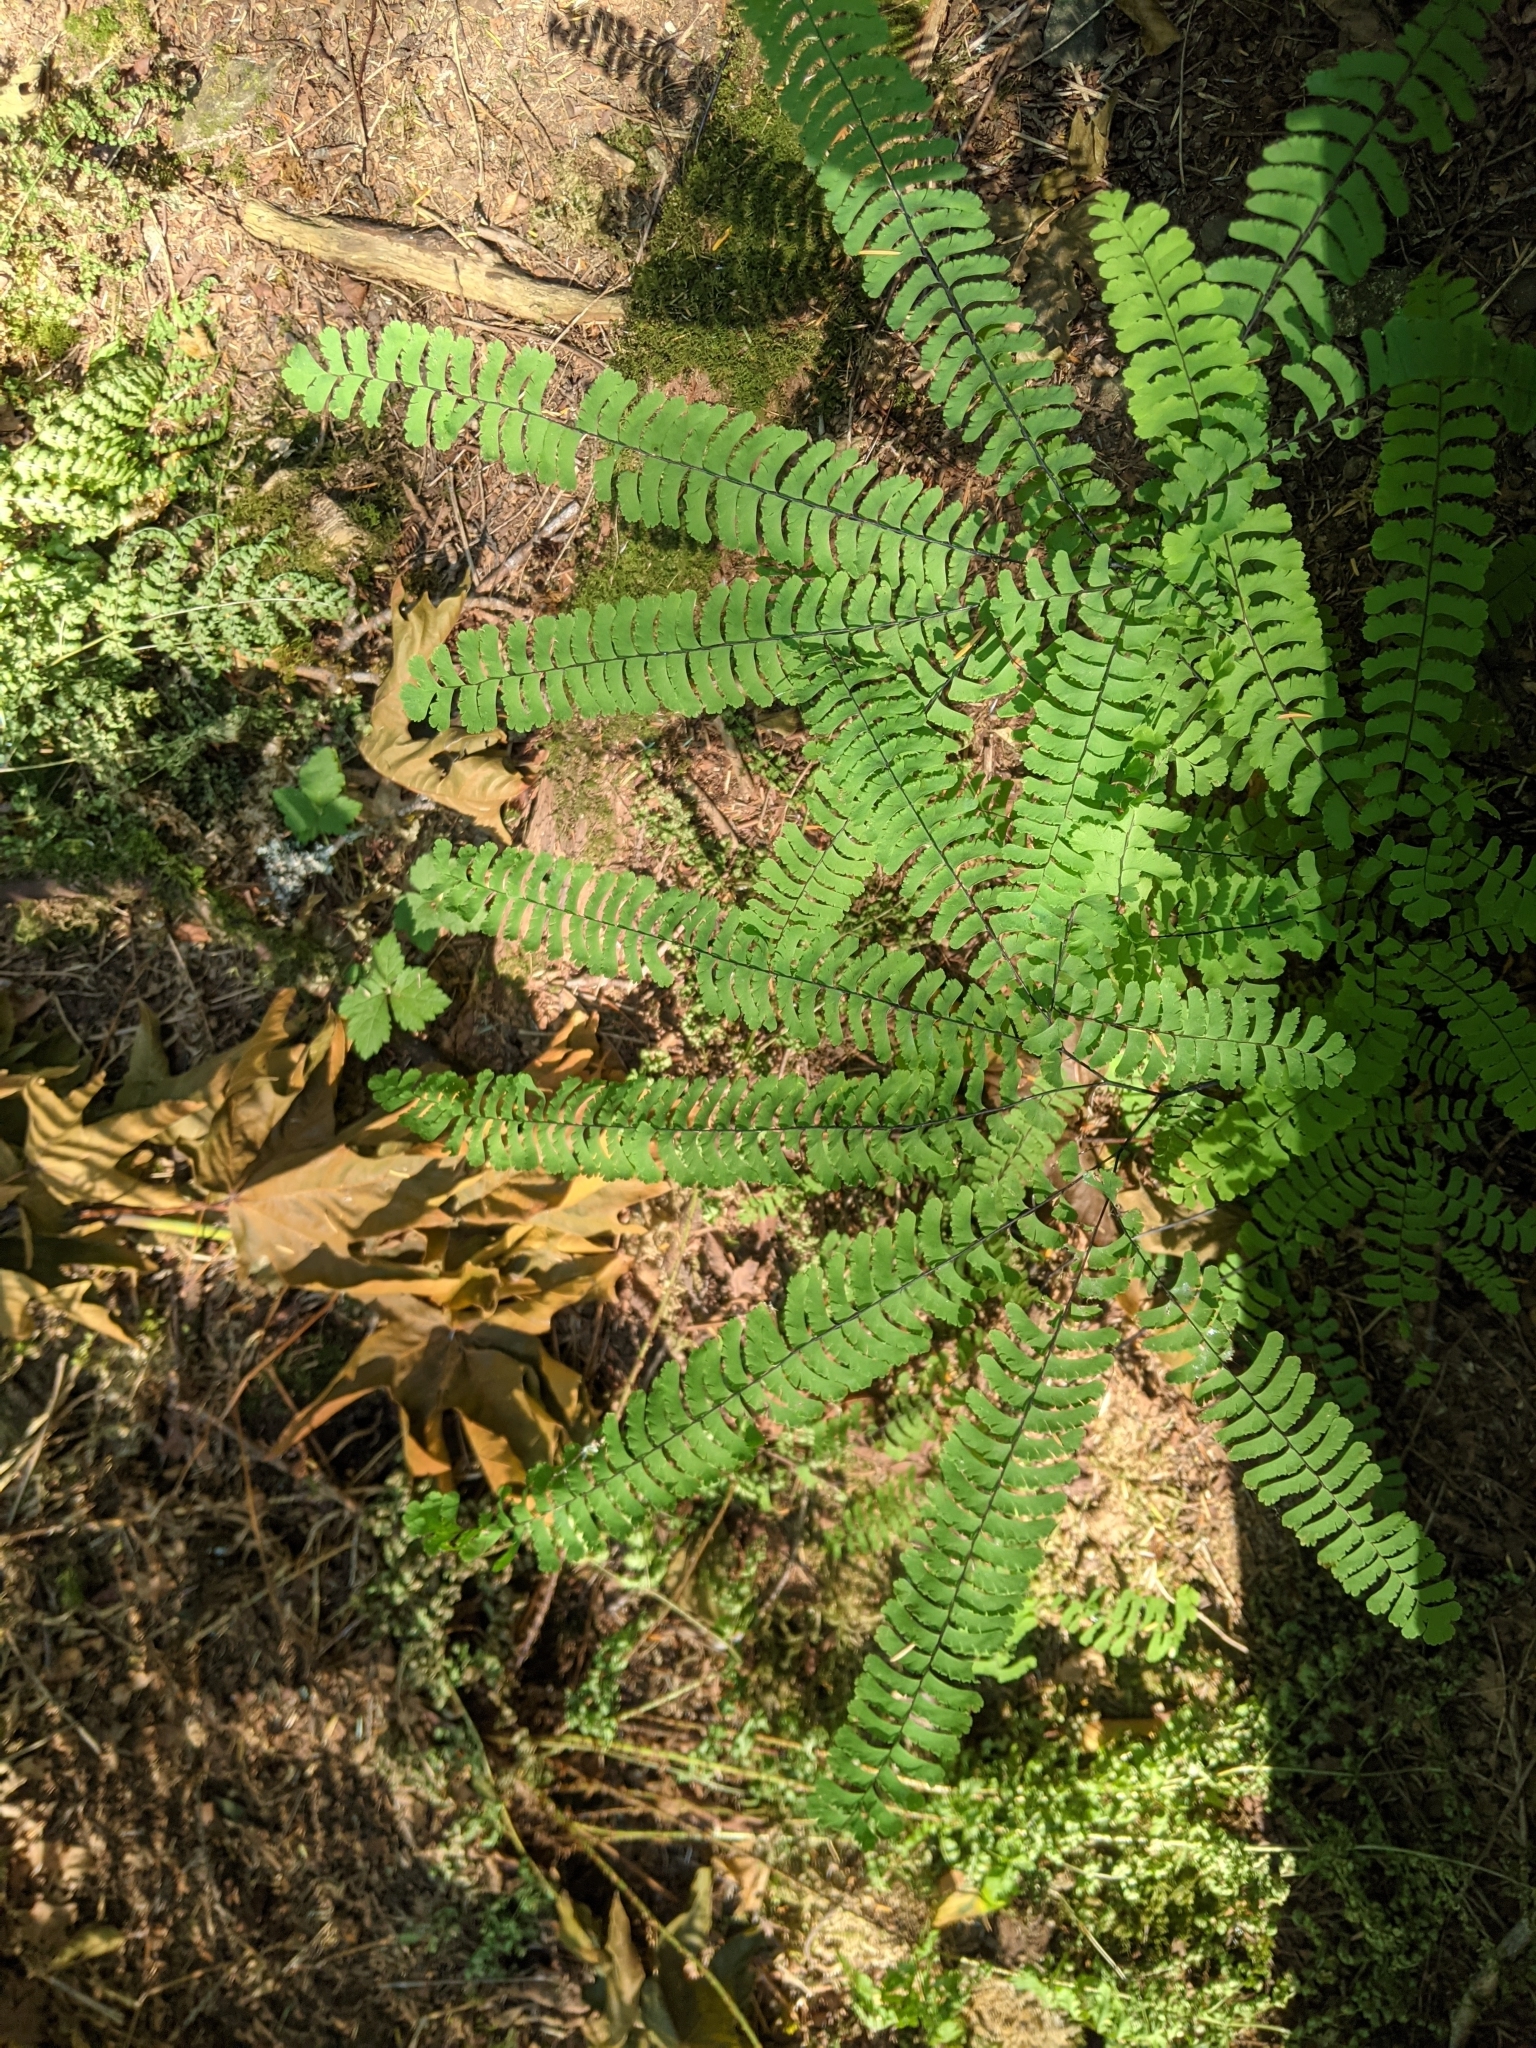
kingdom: Plantae
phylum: Tracheophyta
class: Polypodiopsida
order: Polypodiales
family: Pteridaceae
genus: Adiantum
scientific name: Adiantum aleuticum
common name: Aleutian maidenhair fern
